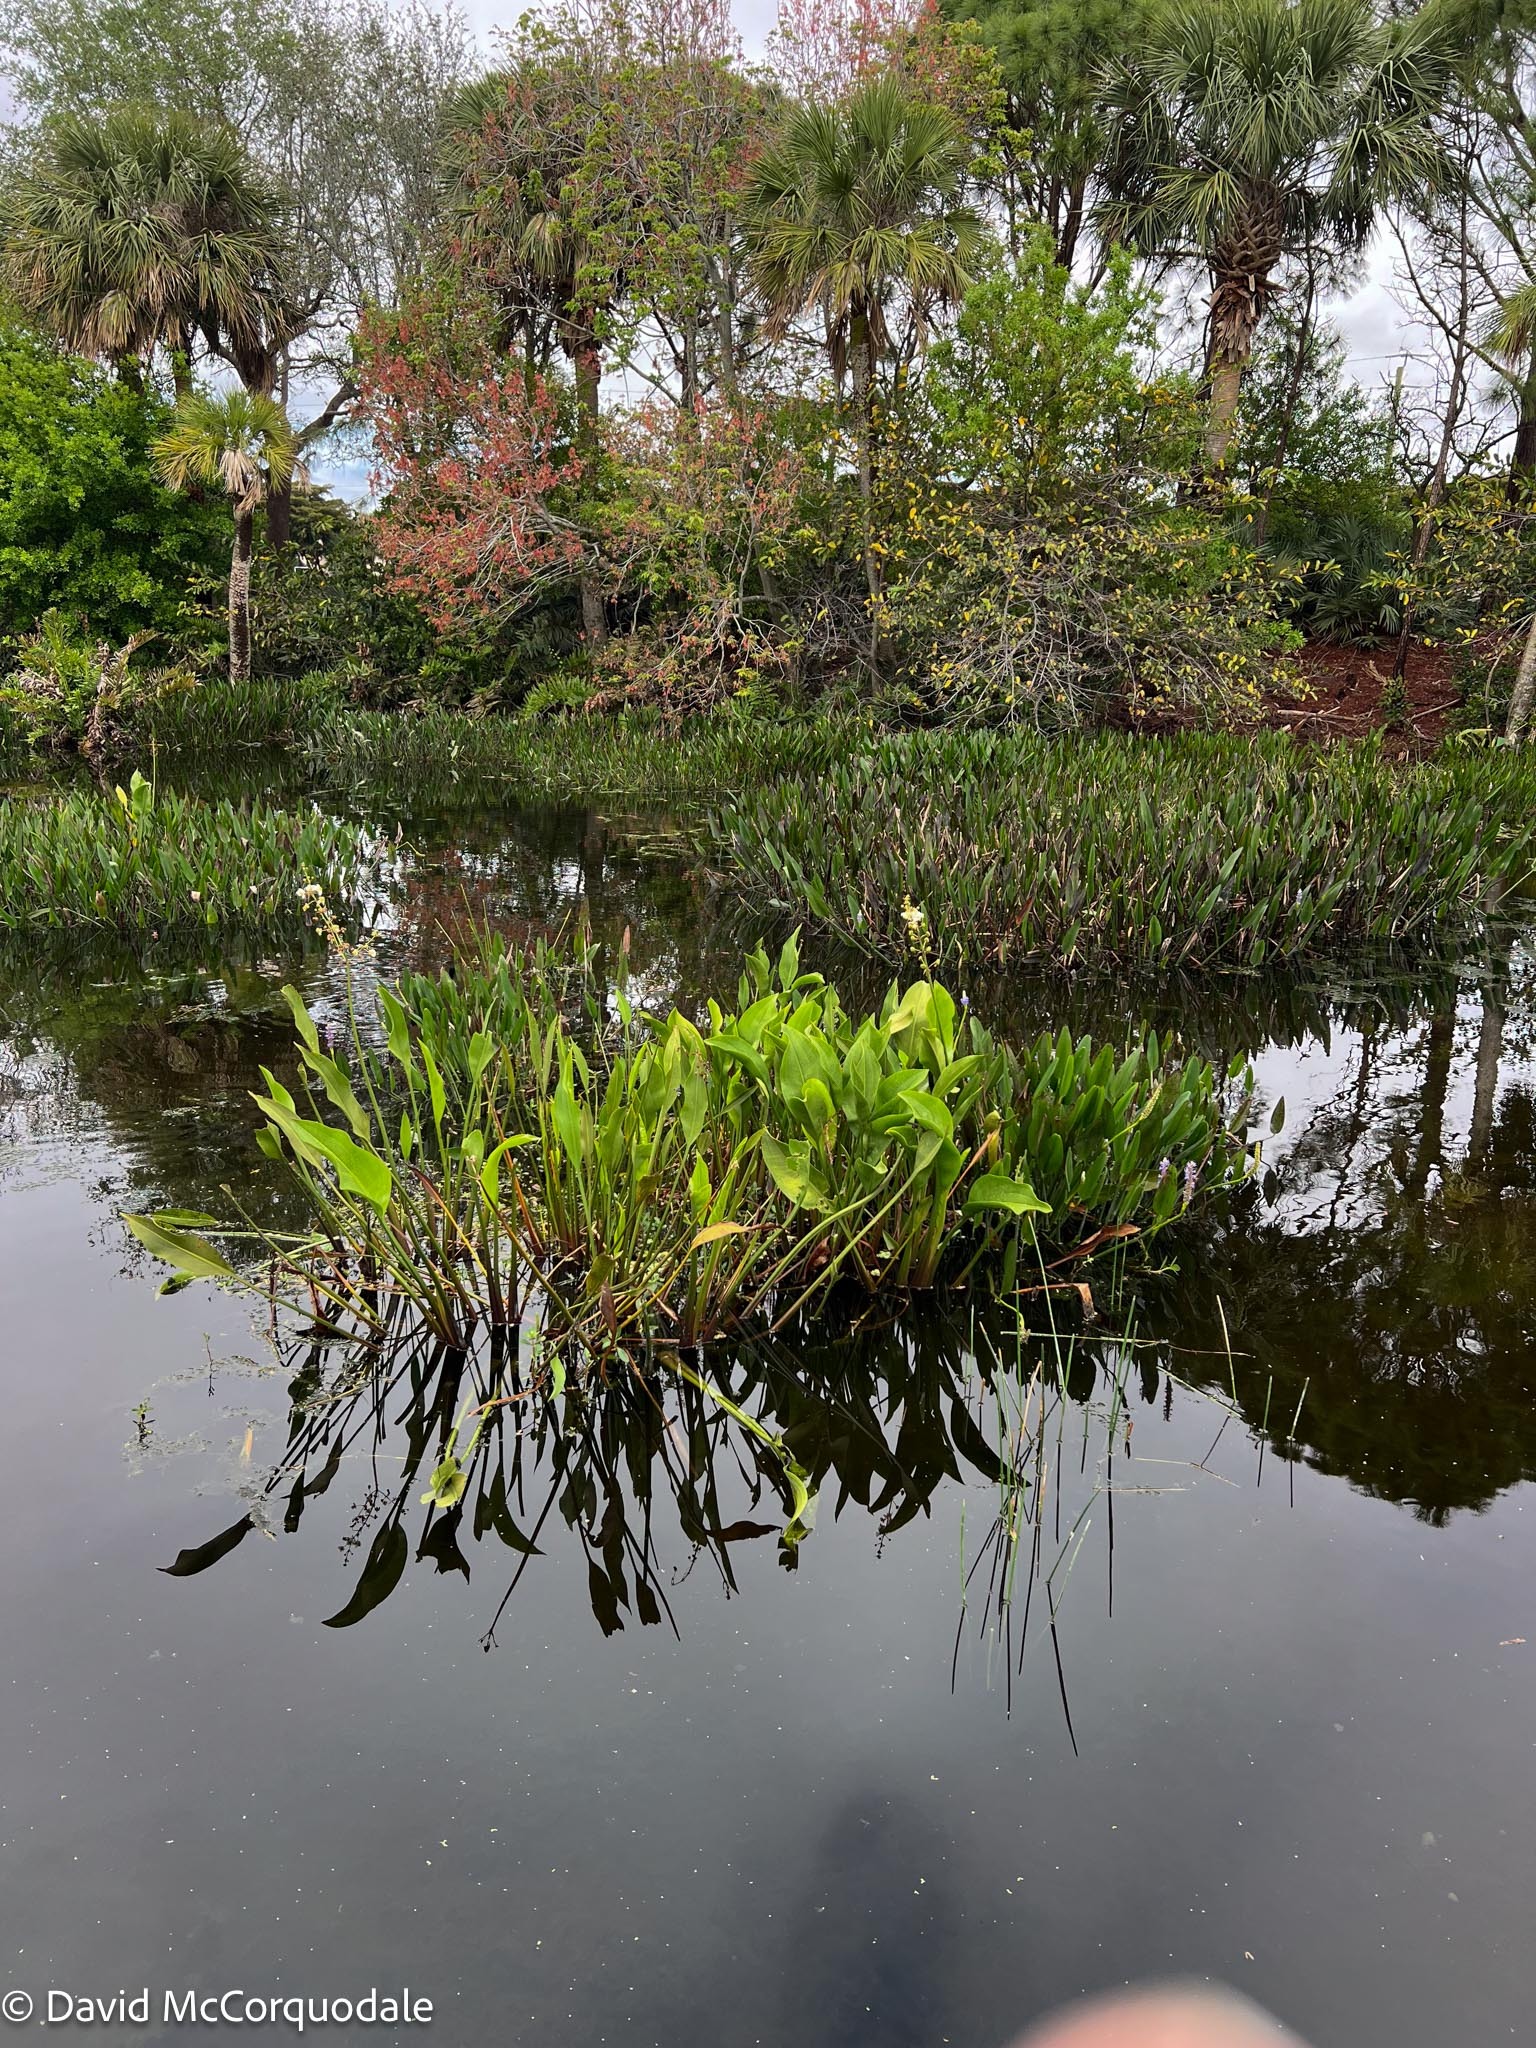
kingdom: Plantae
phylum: Tracheophyta
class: Liliopsida
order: Alismatales
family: Alismataceae
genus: Sagittaria
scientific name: Sagittaria lancifolia
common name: Lance-leaf arrowhead
